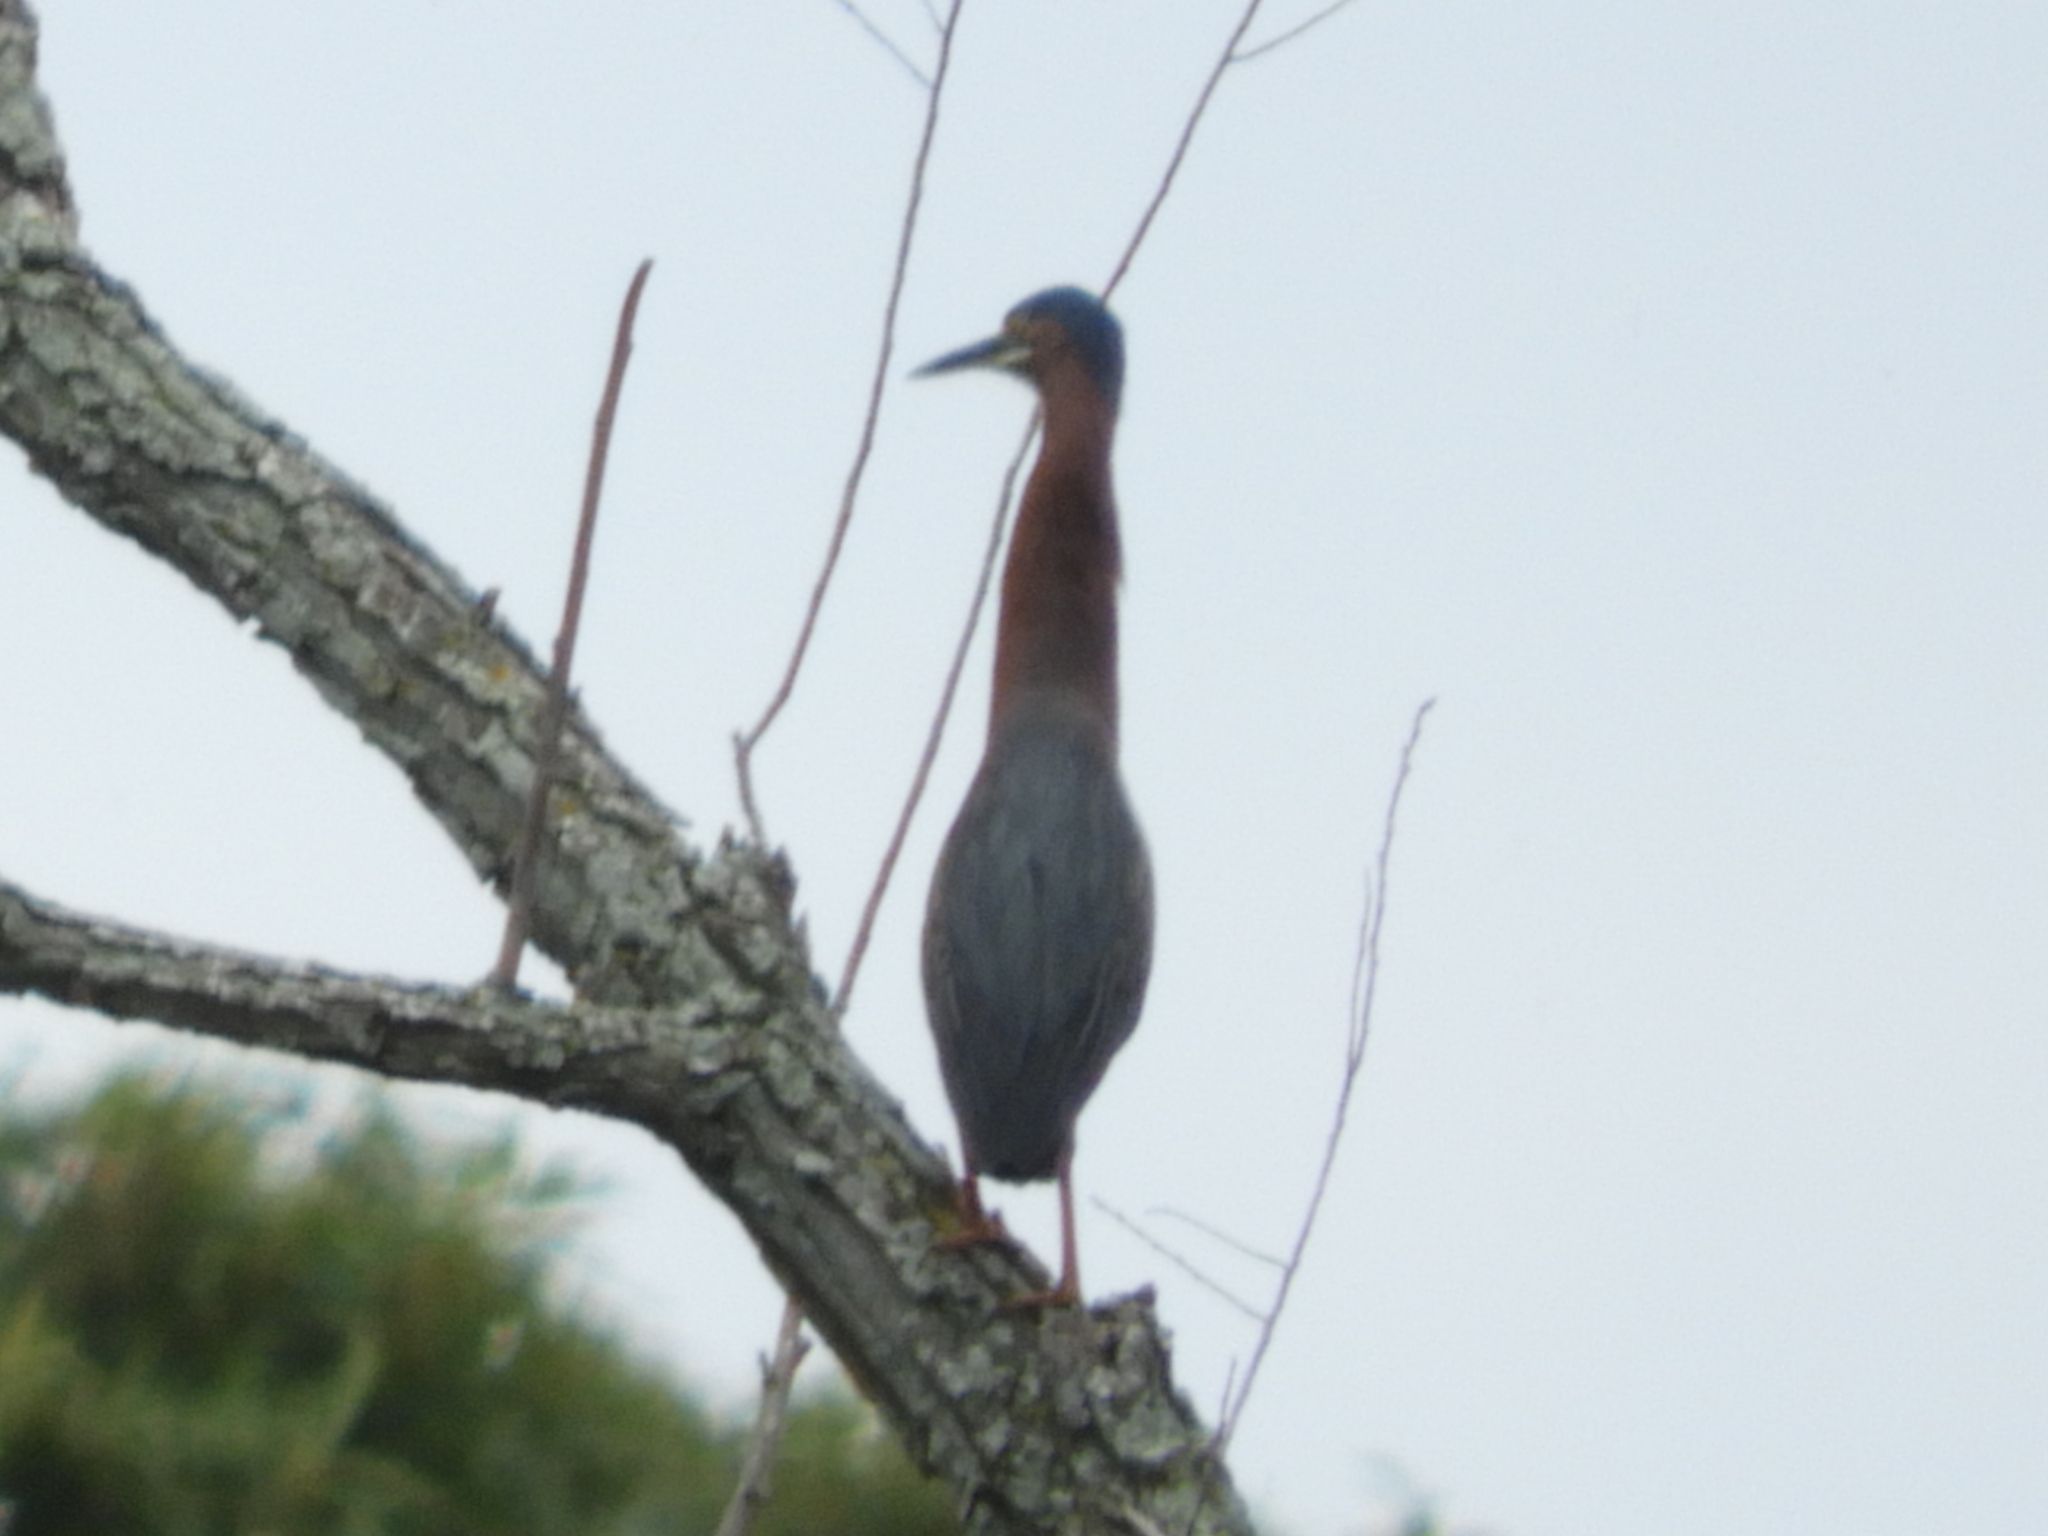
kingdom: Animalia
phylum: Chordata
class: Aves
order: Pelecaniformes
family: Ardeidae
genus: Butorides
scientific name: Butorides virescens
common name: Green heron
